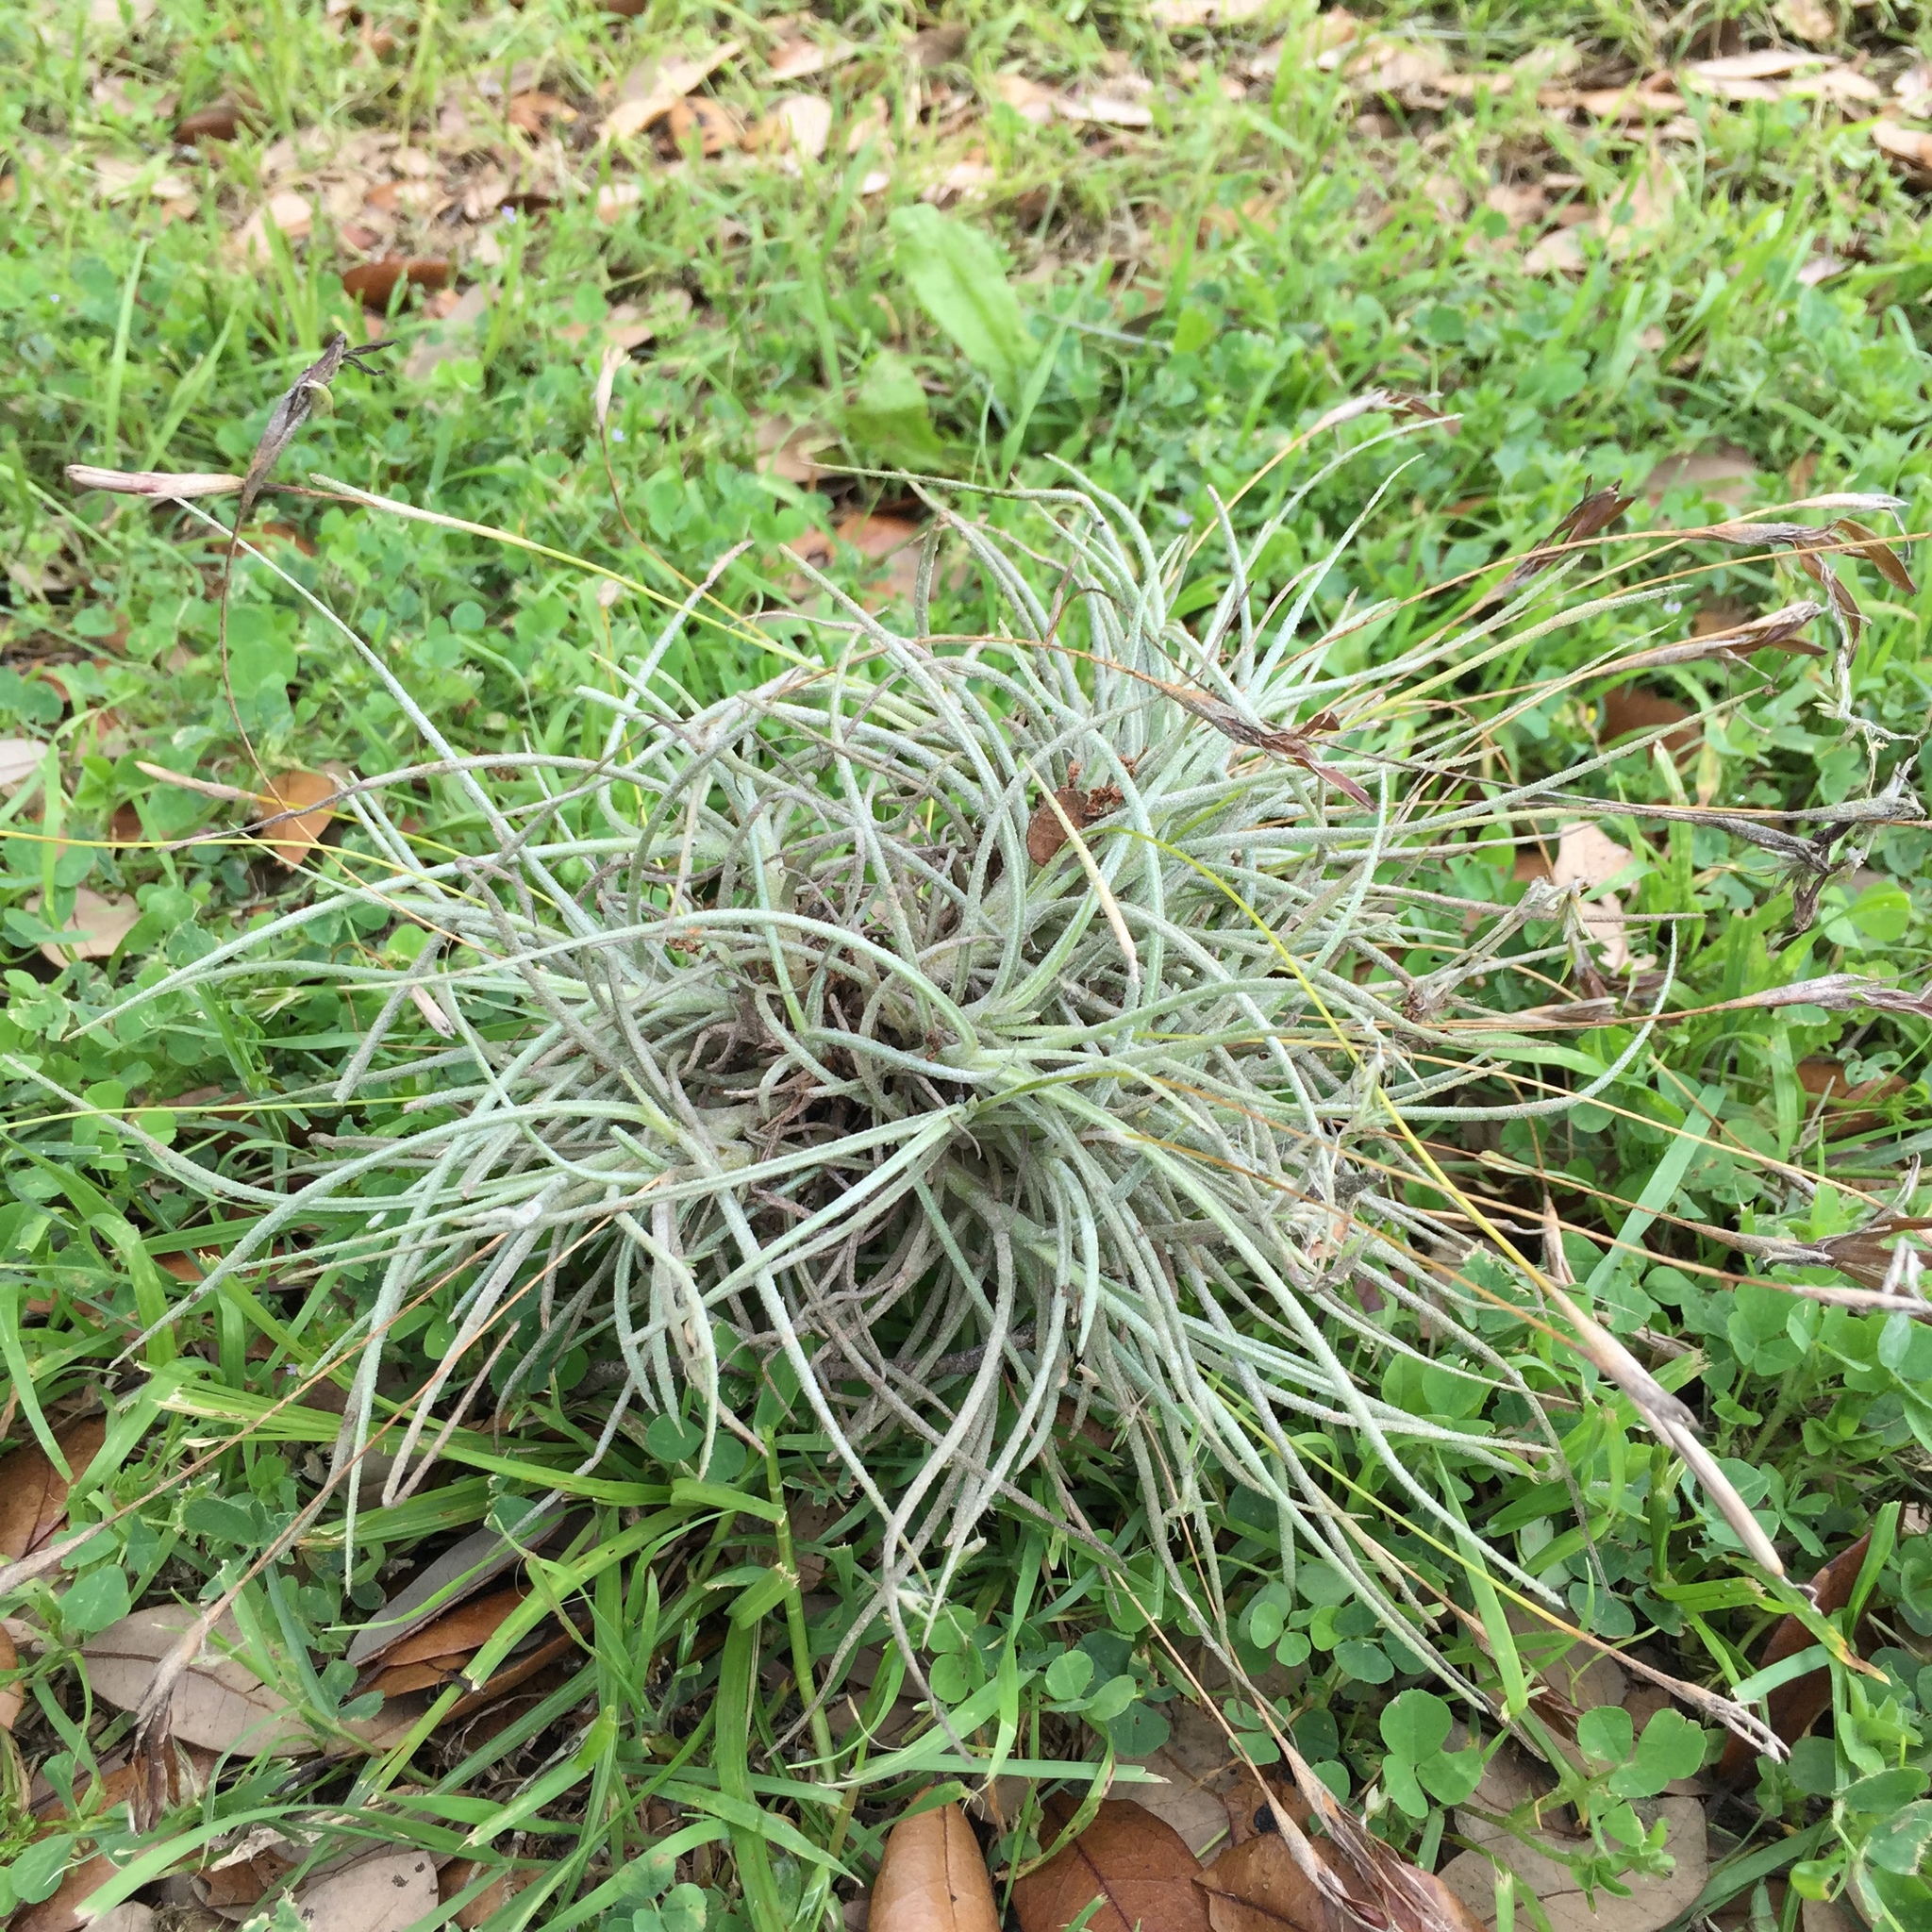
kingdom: Plantae
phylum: Tracheophyta
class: Liliopsida
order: Poales
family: Bromeliaceae
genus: Tillandsia
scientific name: Tillandsia recurvata
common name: Small ballmoss
